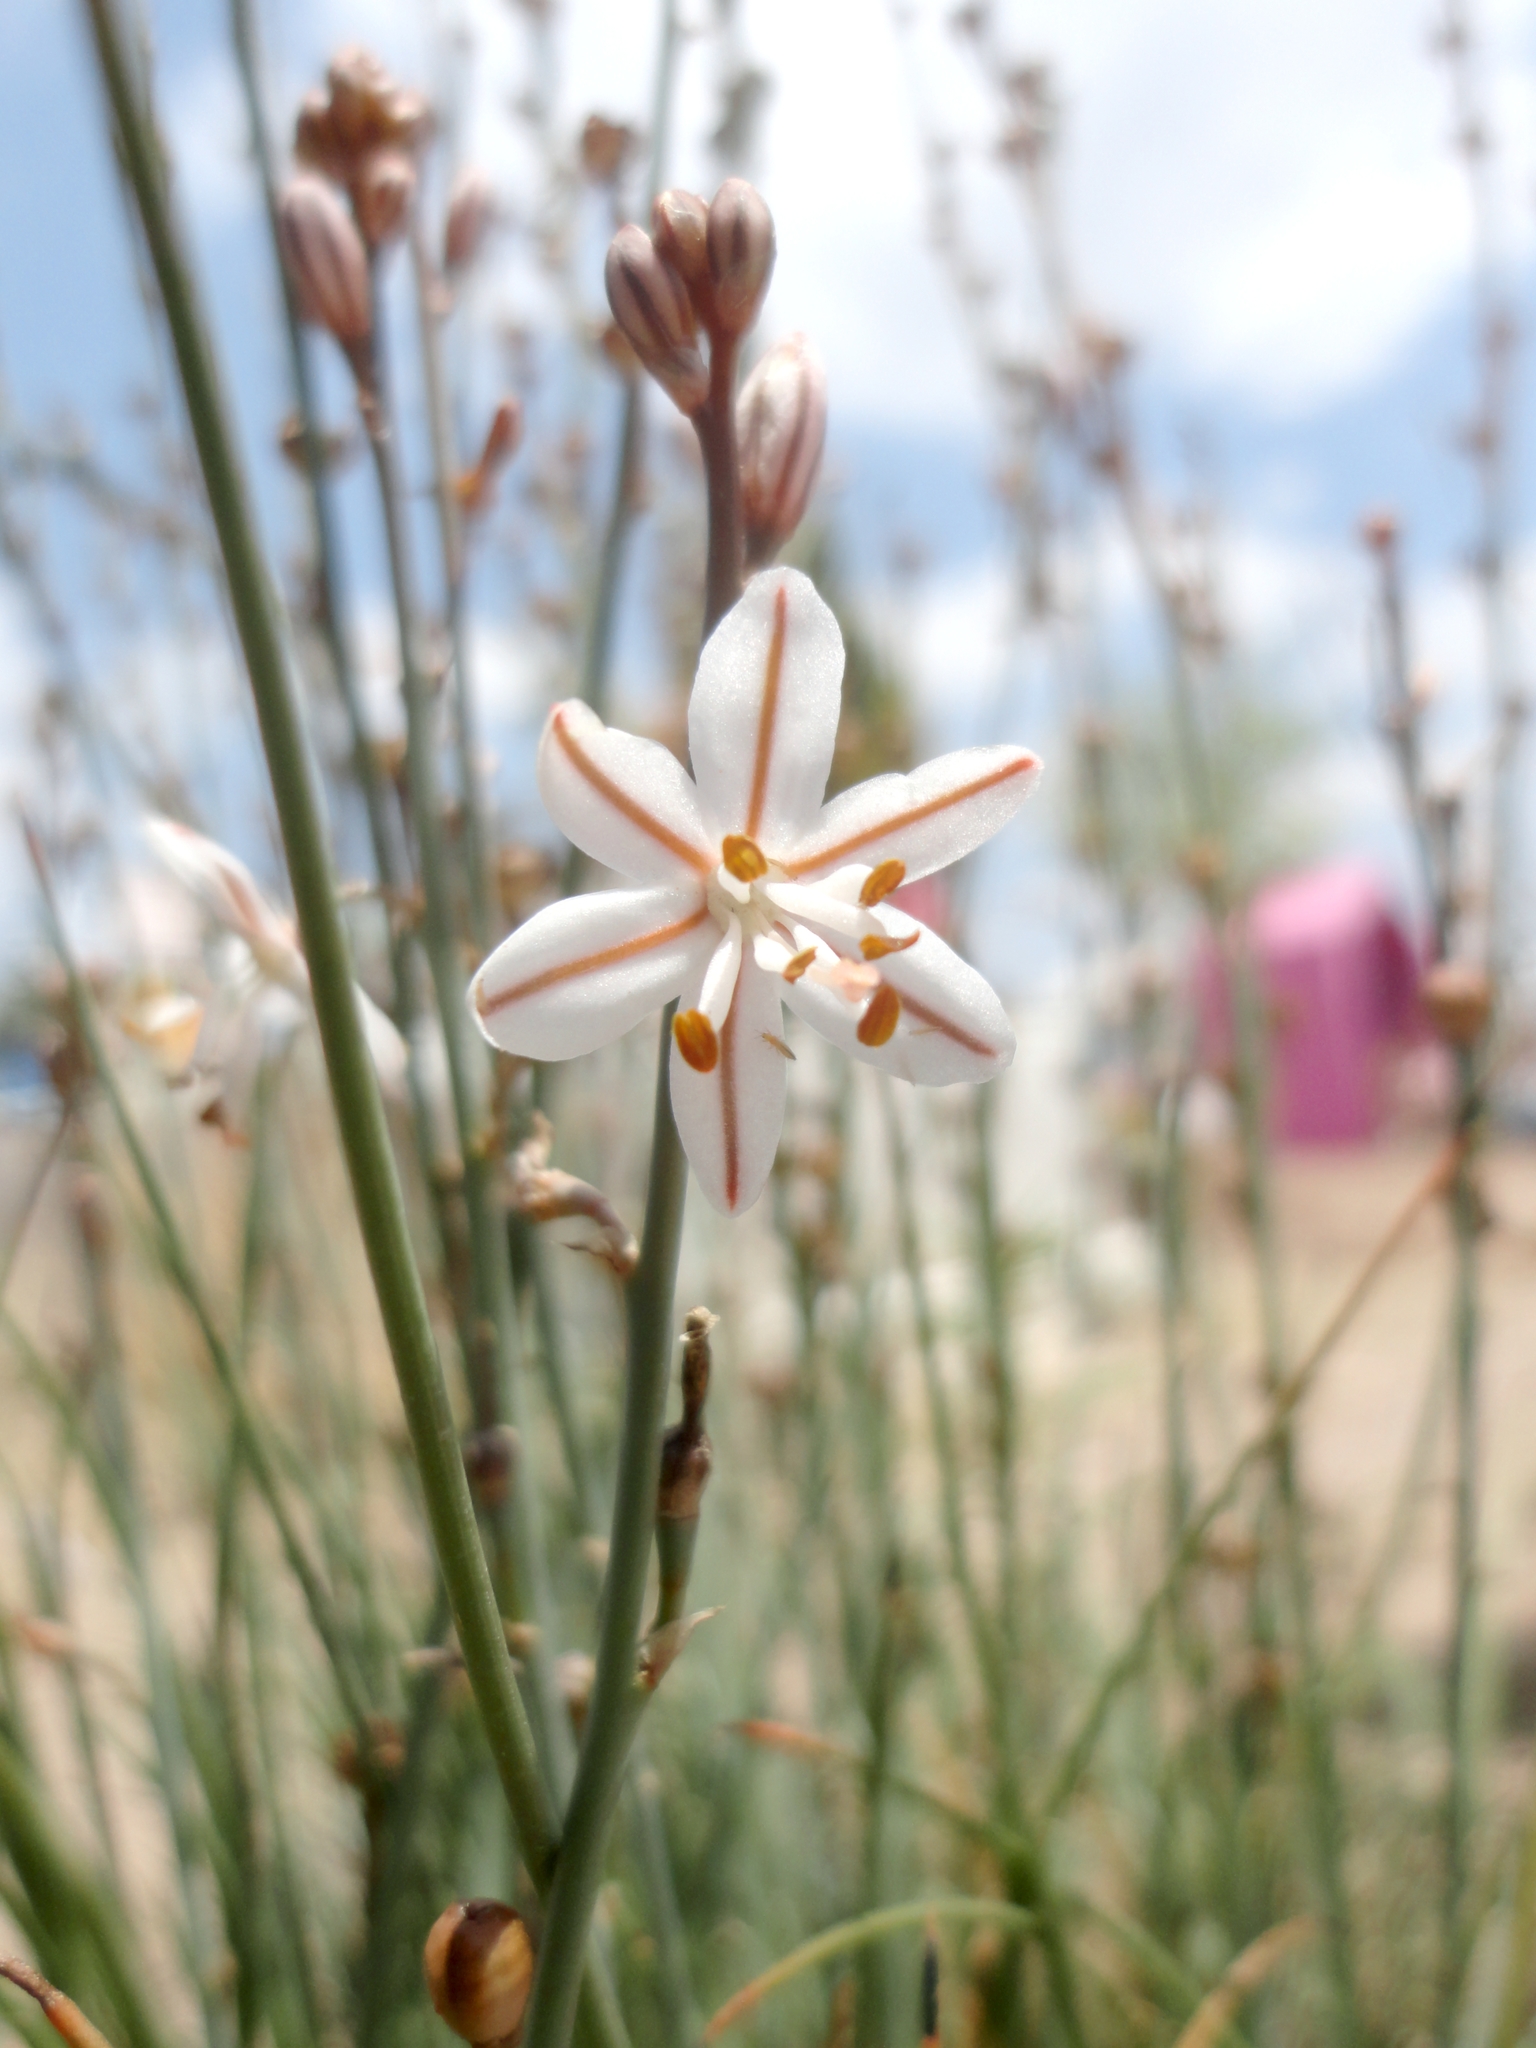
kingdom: Plantae
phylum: Tracheophyta
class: Liliopsida
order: Asparagales
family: Asphodelaceae
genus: Asphodelus
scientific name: Asphodelus fistulosus
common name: Onionweed
